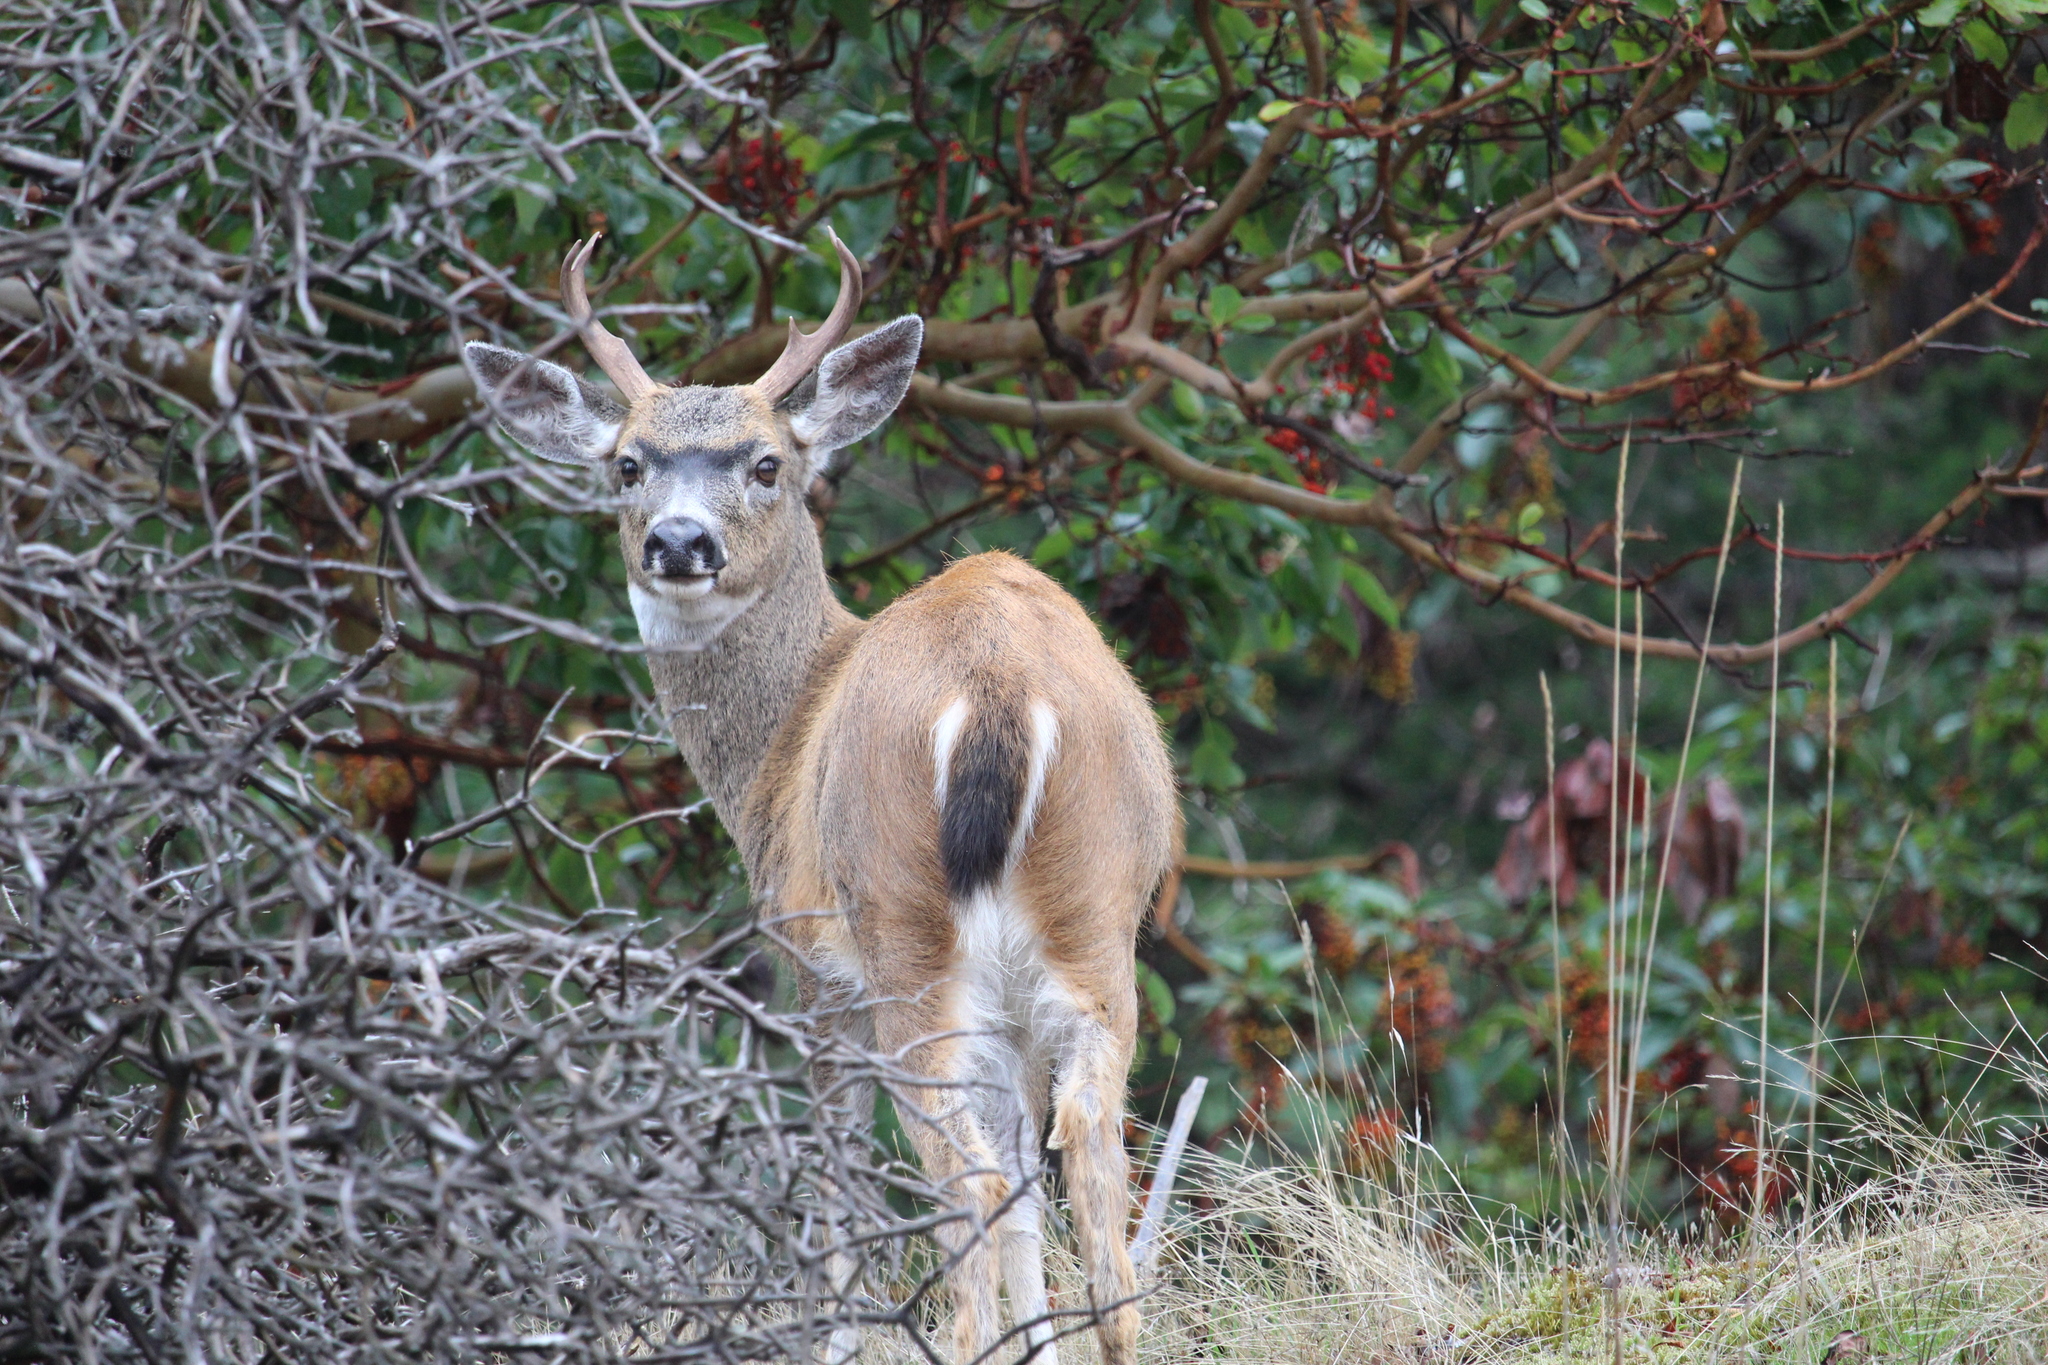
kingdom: Animalia
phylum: Chordata
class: Mammalia
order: Artiodactyla
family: Cervidae
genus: Odocoileus
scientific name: Odocoileus hemionus
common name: Mule deer
